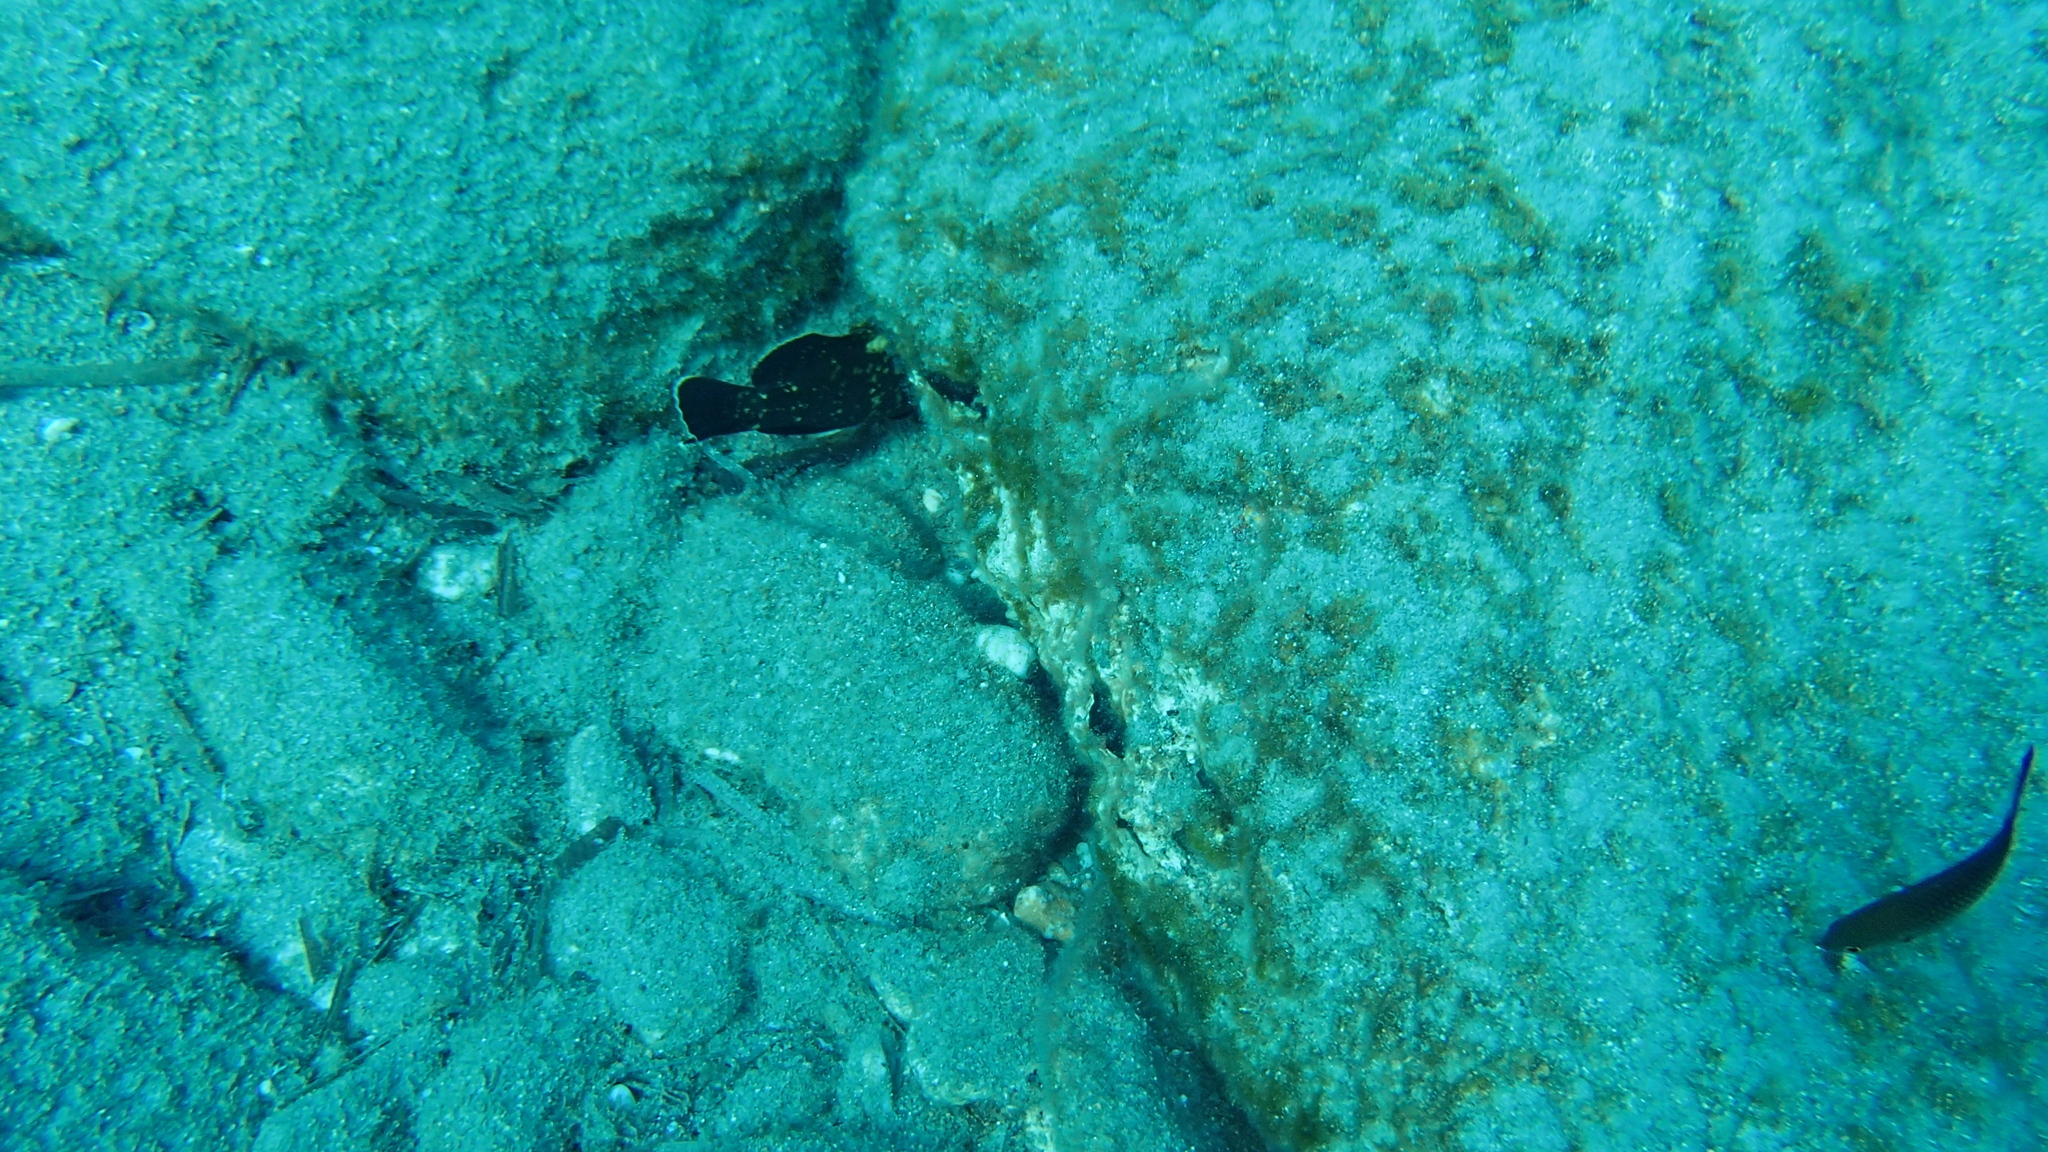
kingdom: Animalia
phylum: Chordata
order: Perciformes
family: Serranidae
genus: Epinephelus
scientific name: Epinephelus marginatus
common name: Dusky grouper
